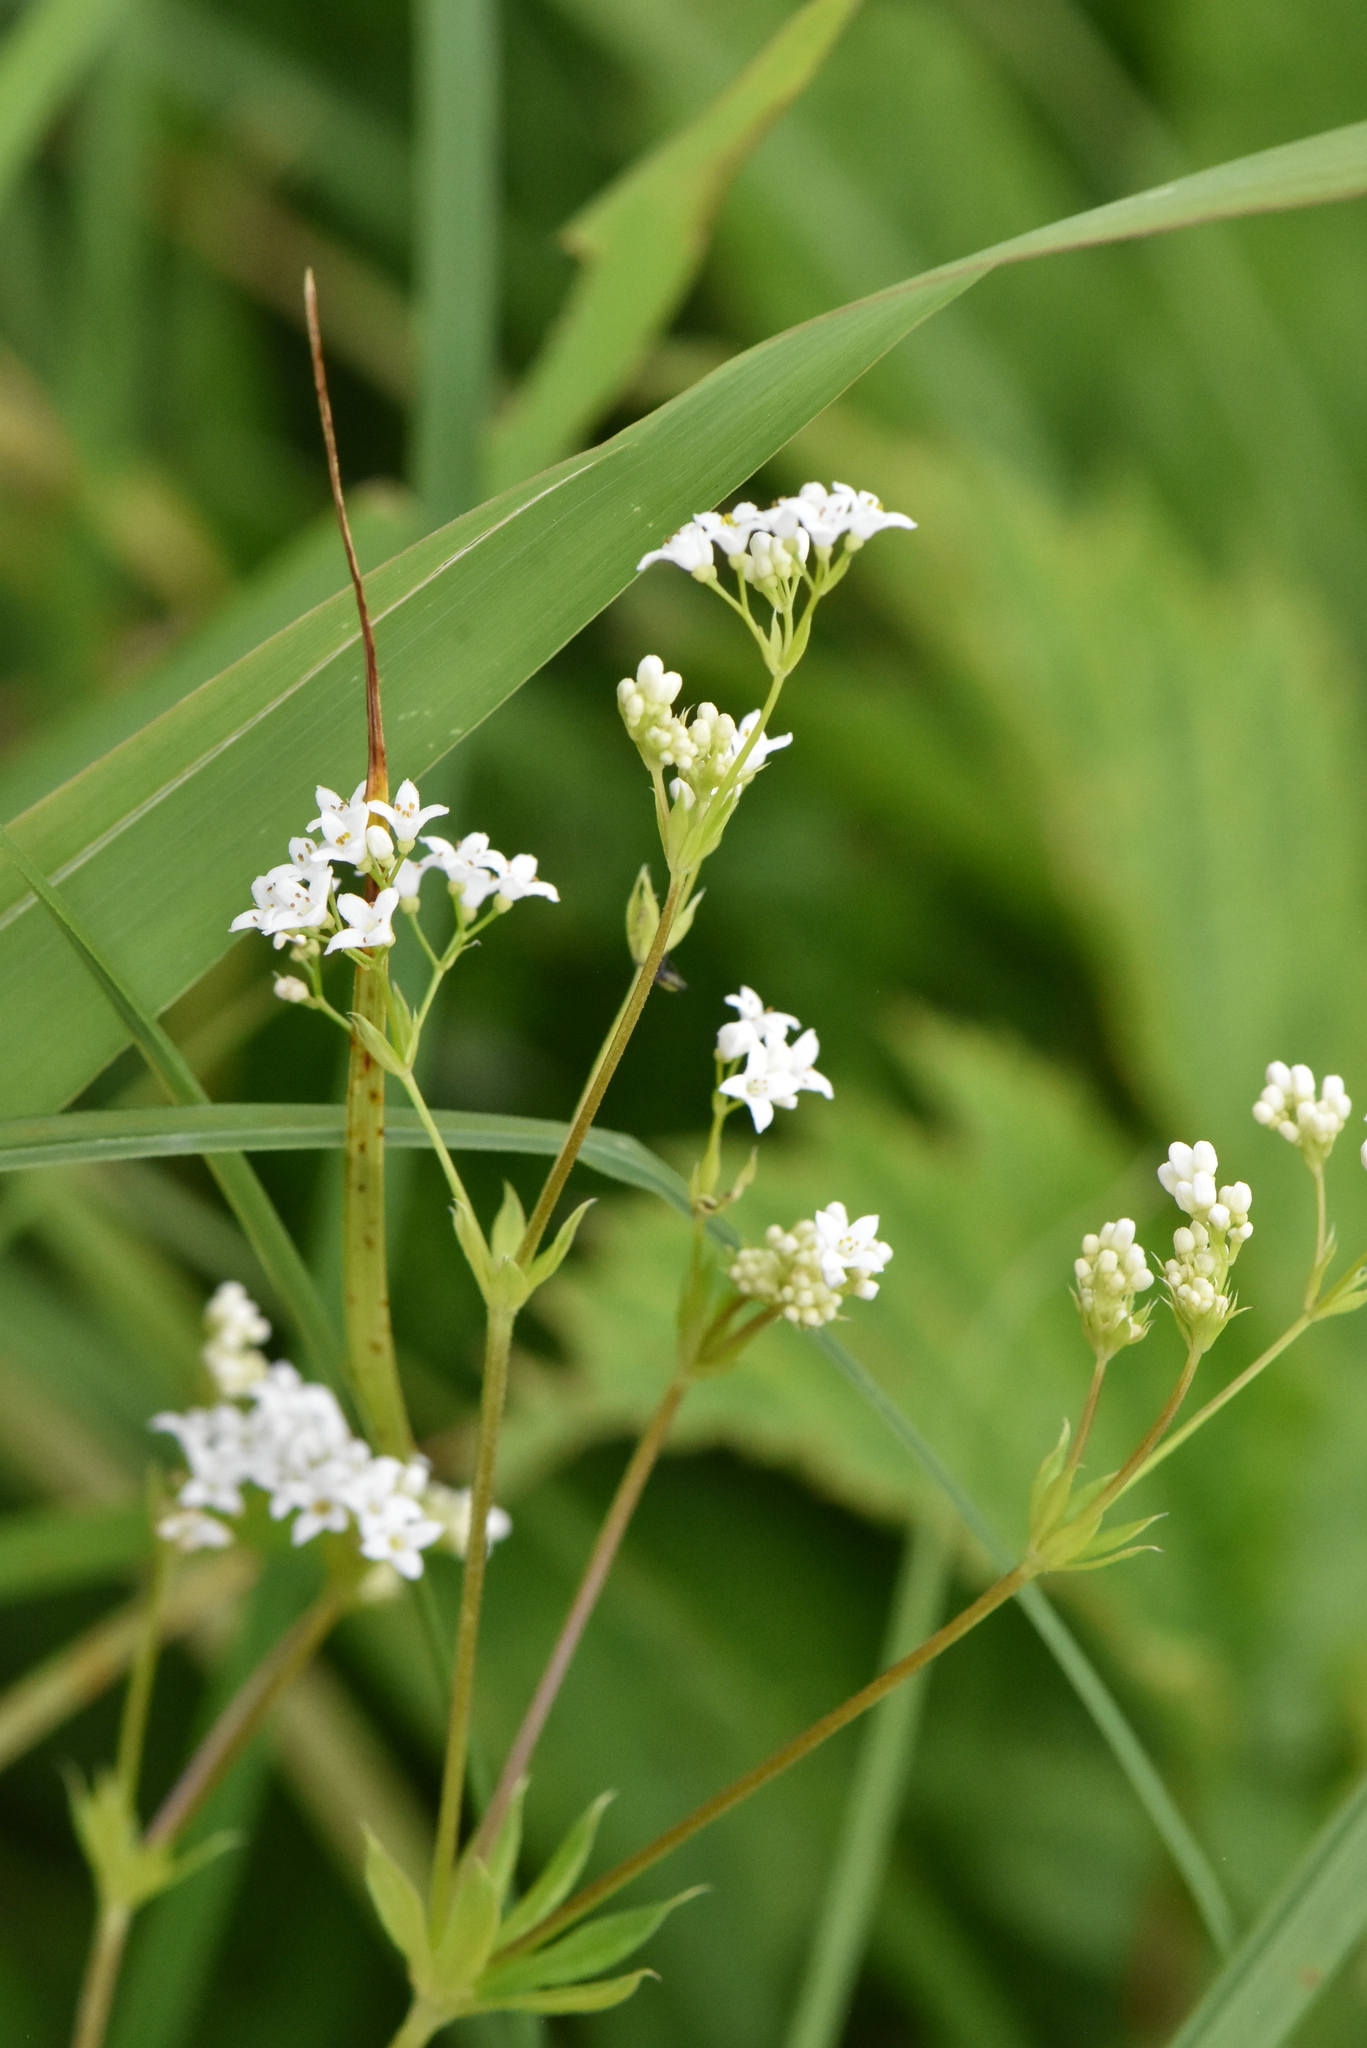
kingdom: Plantae
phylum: Tracheophyta
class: Magnoliopsida
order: Gentianales
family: Rubiaceae
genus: Galium
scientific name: Galium rivale
